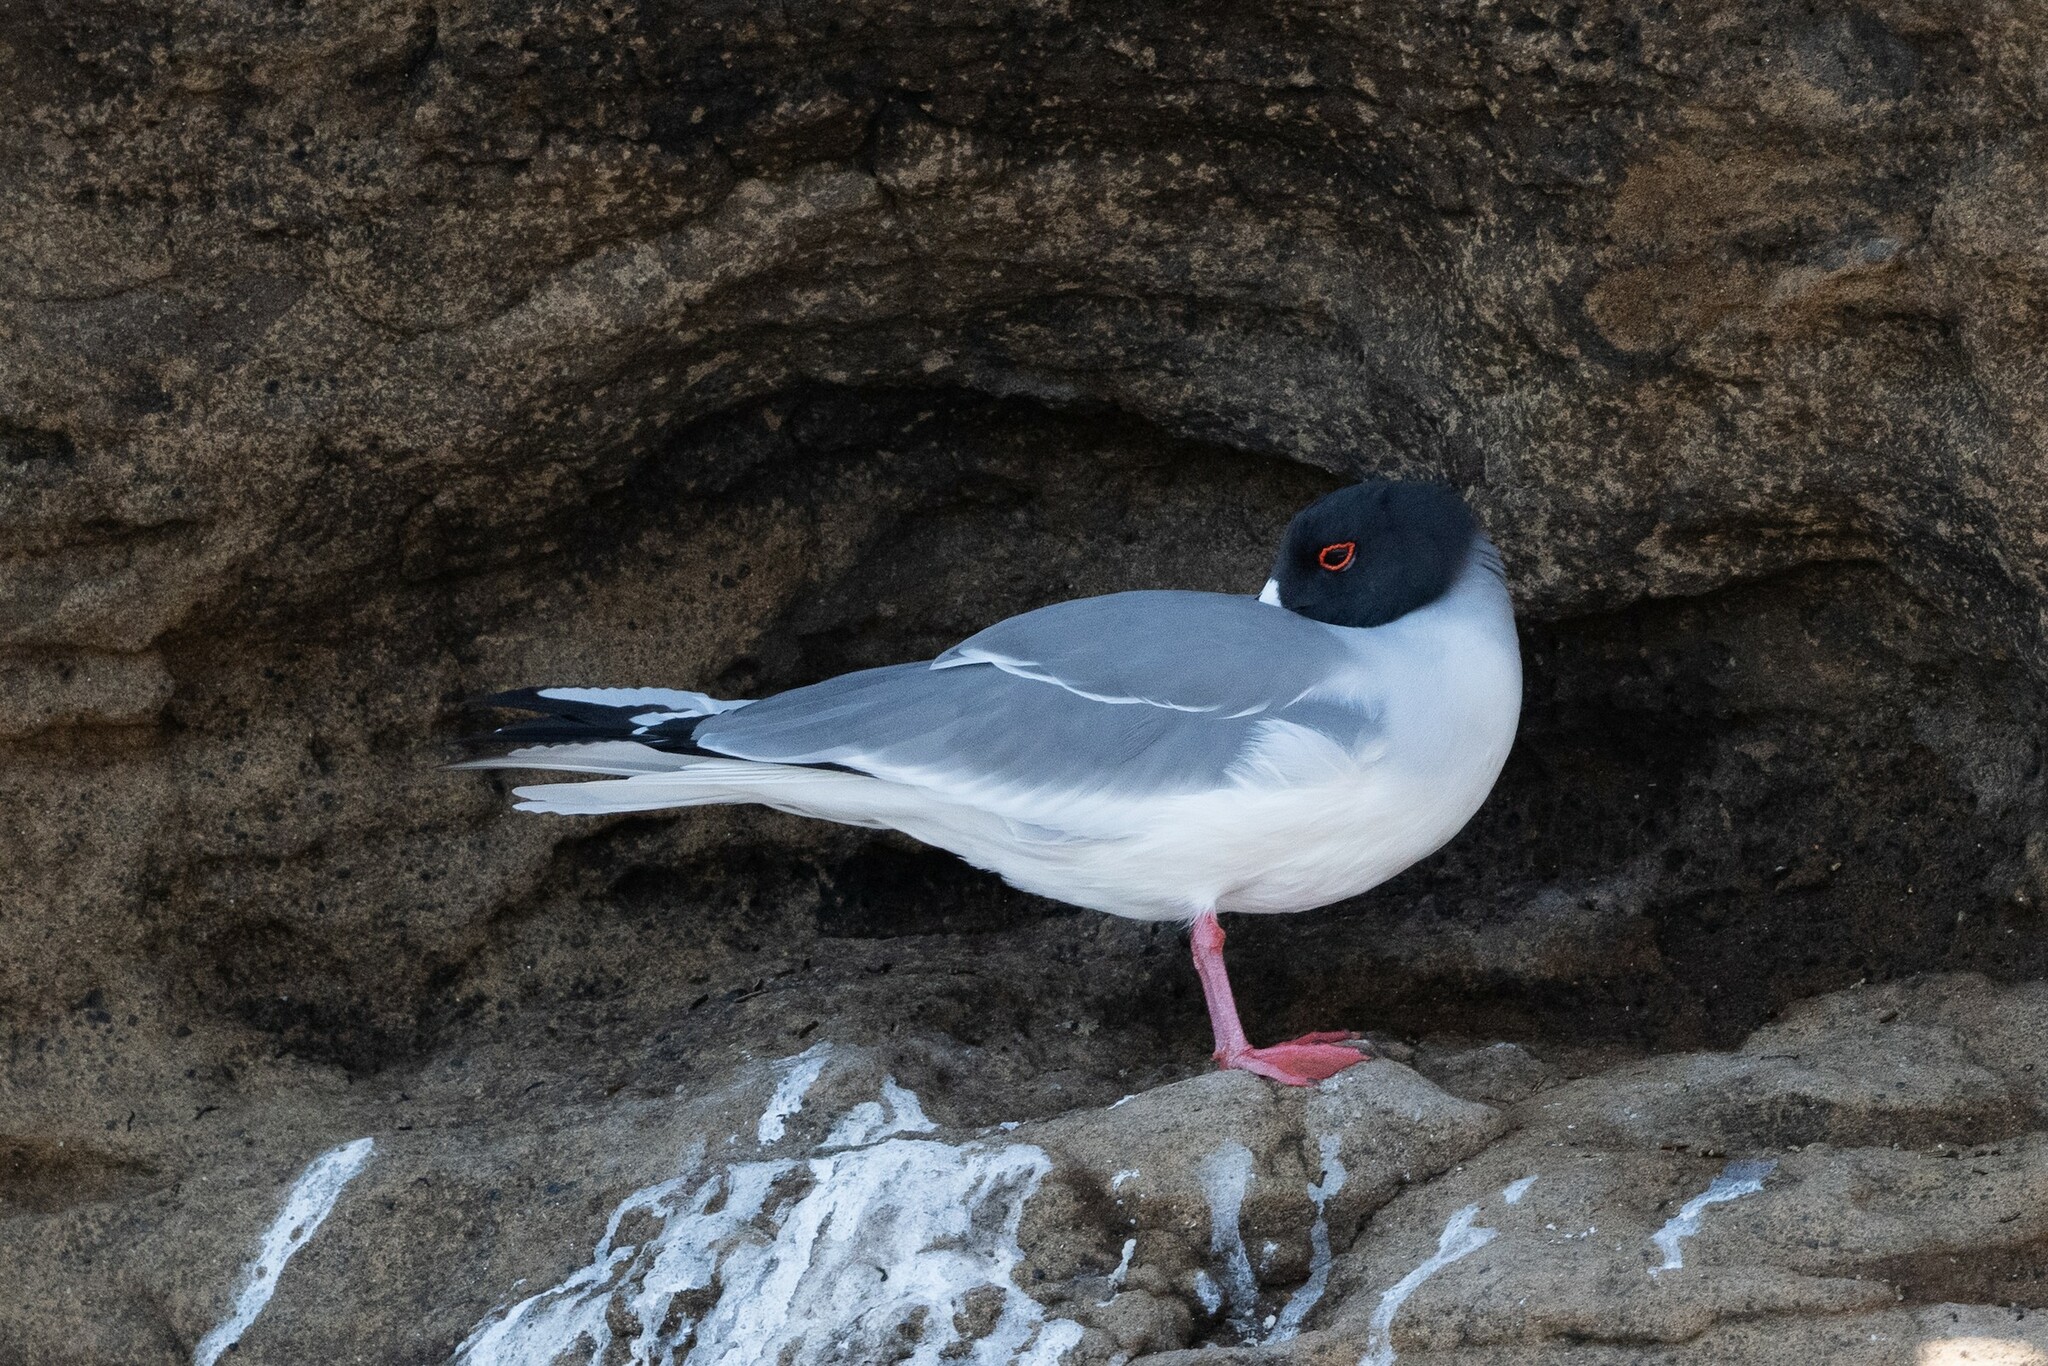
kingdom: Animalia
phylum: Chordata
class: Aves
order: Charadriiformes
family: Laridae
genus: Creagrus
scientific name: Creagrus furcatus
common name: Swallow-tailed gull
